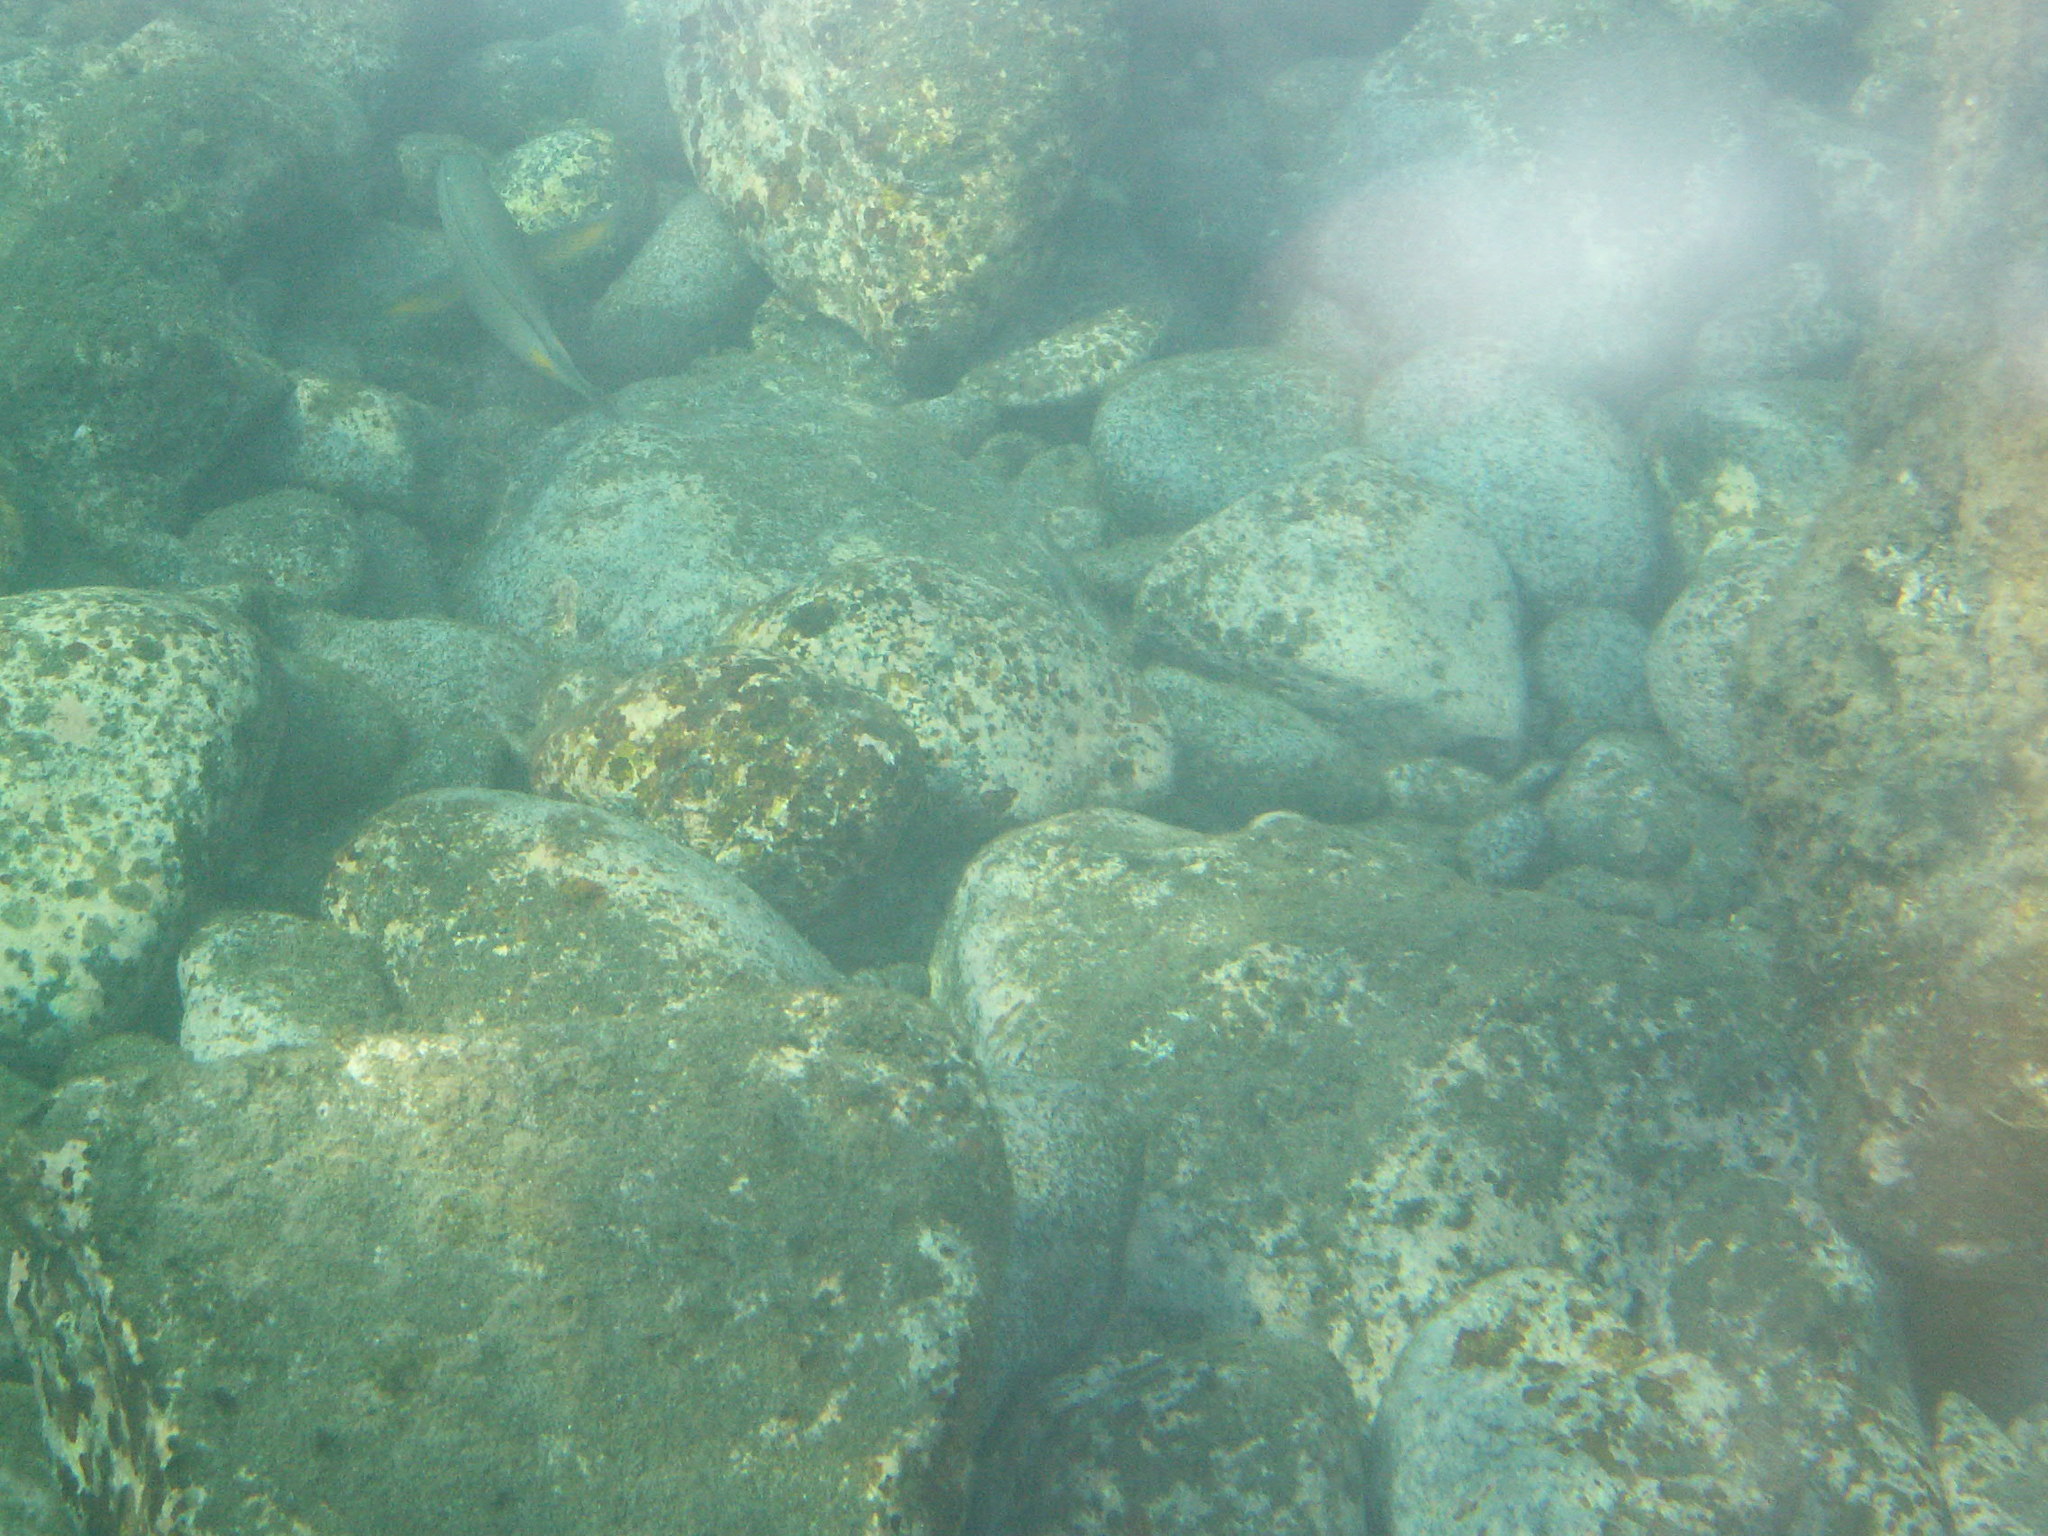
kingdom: Animalia
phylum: Chordata
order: Perciformes
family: Acanthuridae
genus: Acanthurus
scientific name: Acanthurus monroviae
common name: Monrovia surgeonfish
